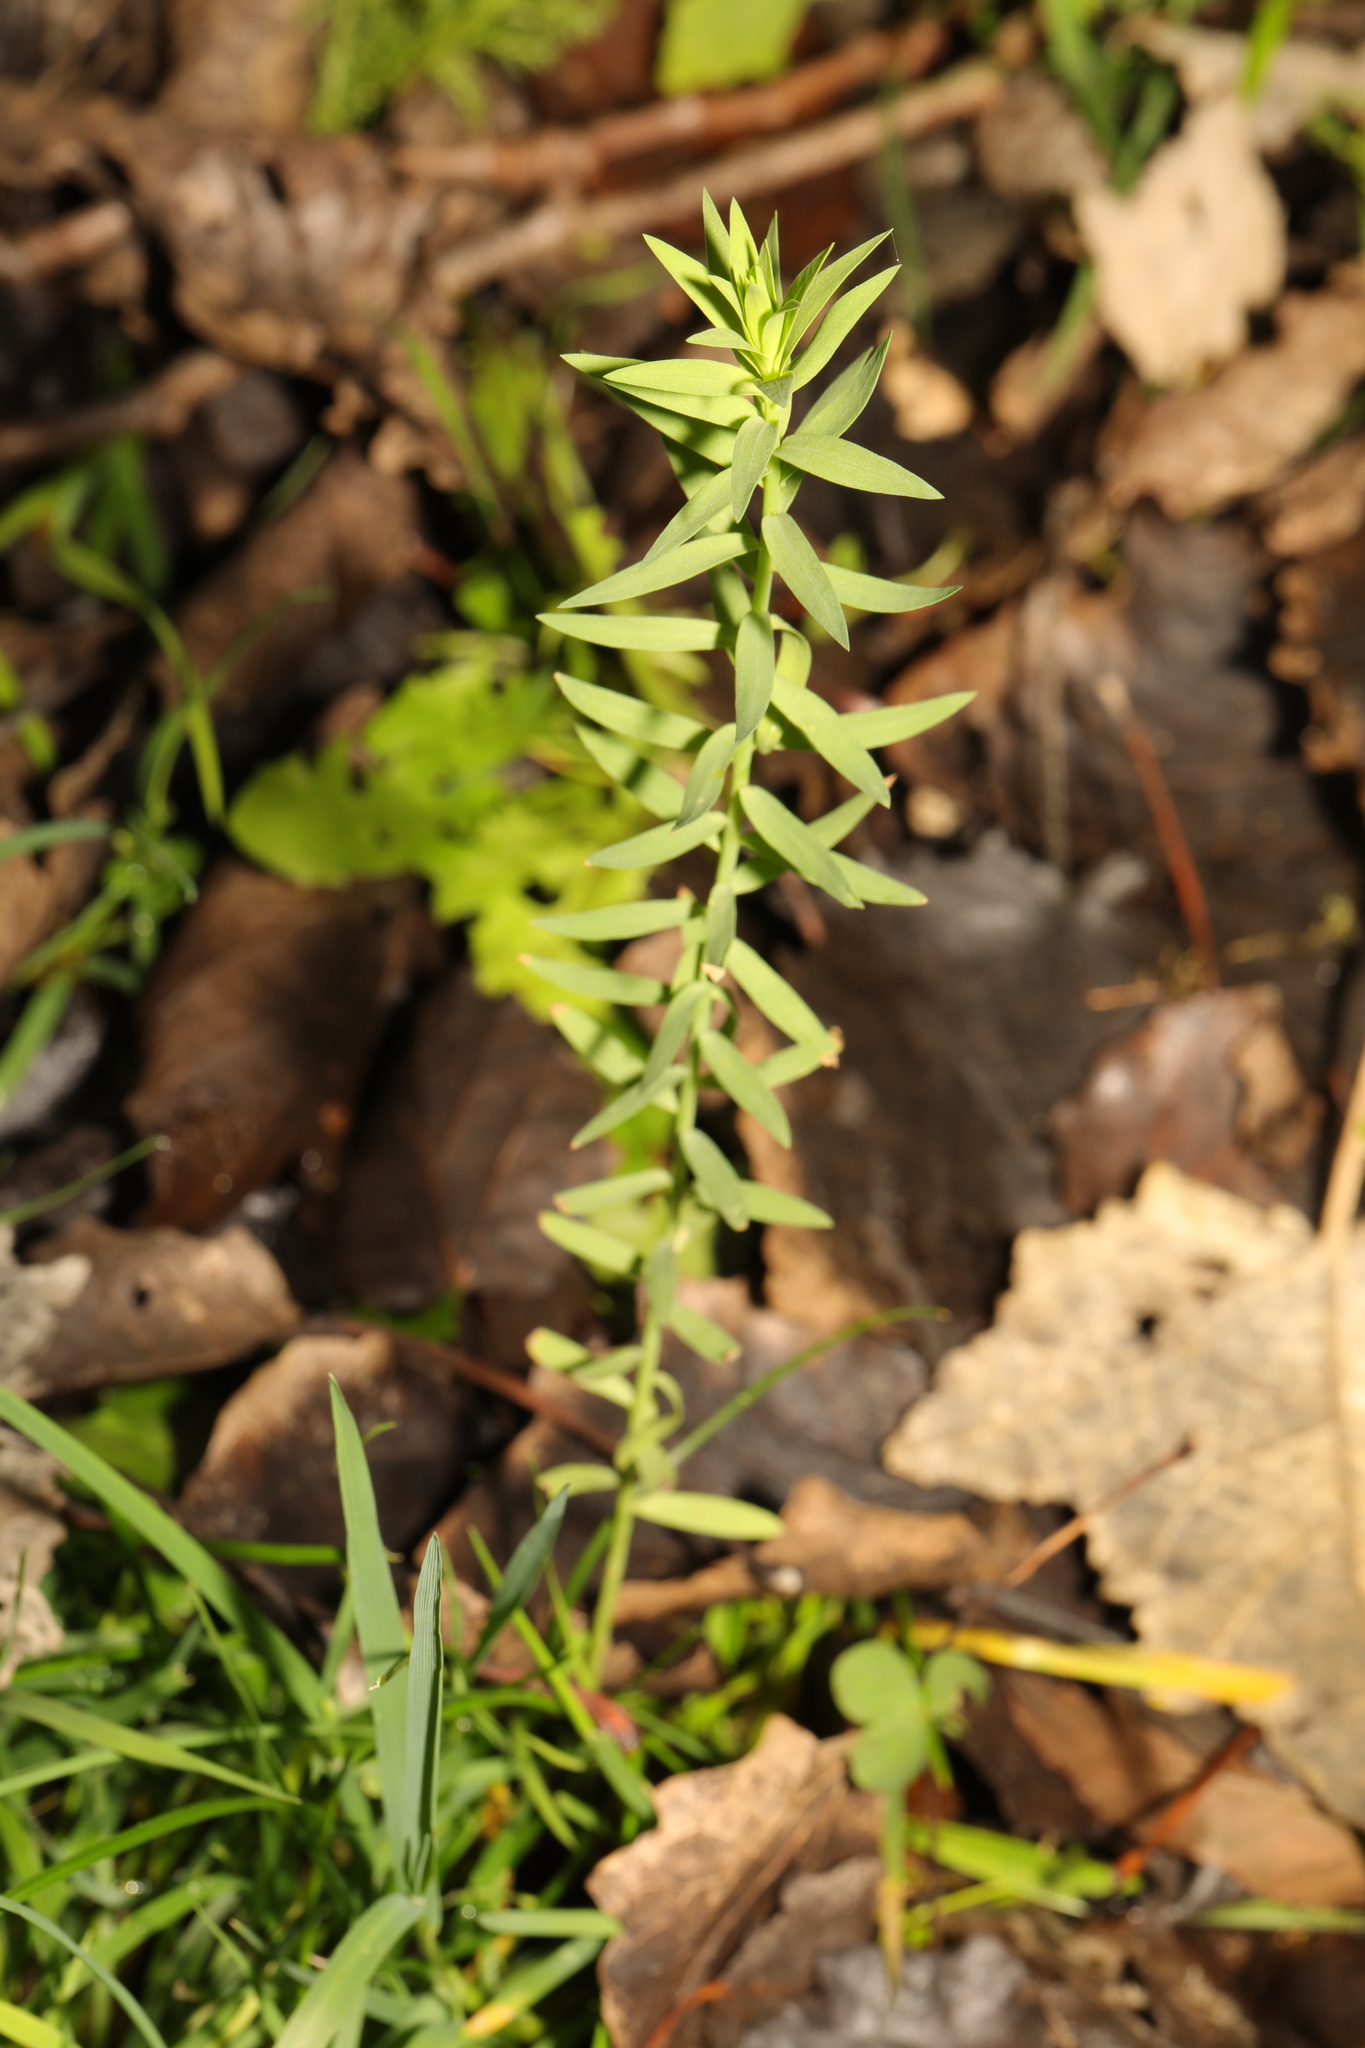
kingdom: Plantae
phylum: Tracheophyta
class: Magnoliopsida
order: Malpighiales
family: Linaceae
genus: Linum
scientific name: Linum usitatissimum
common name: Flax
